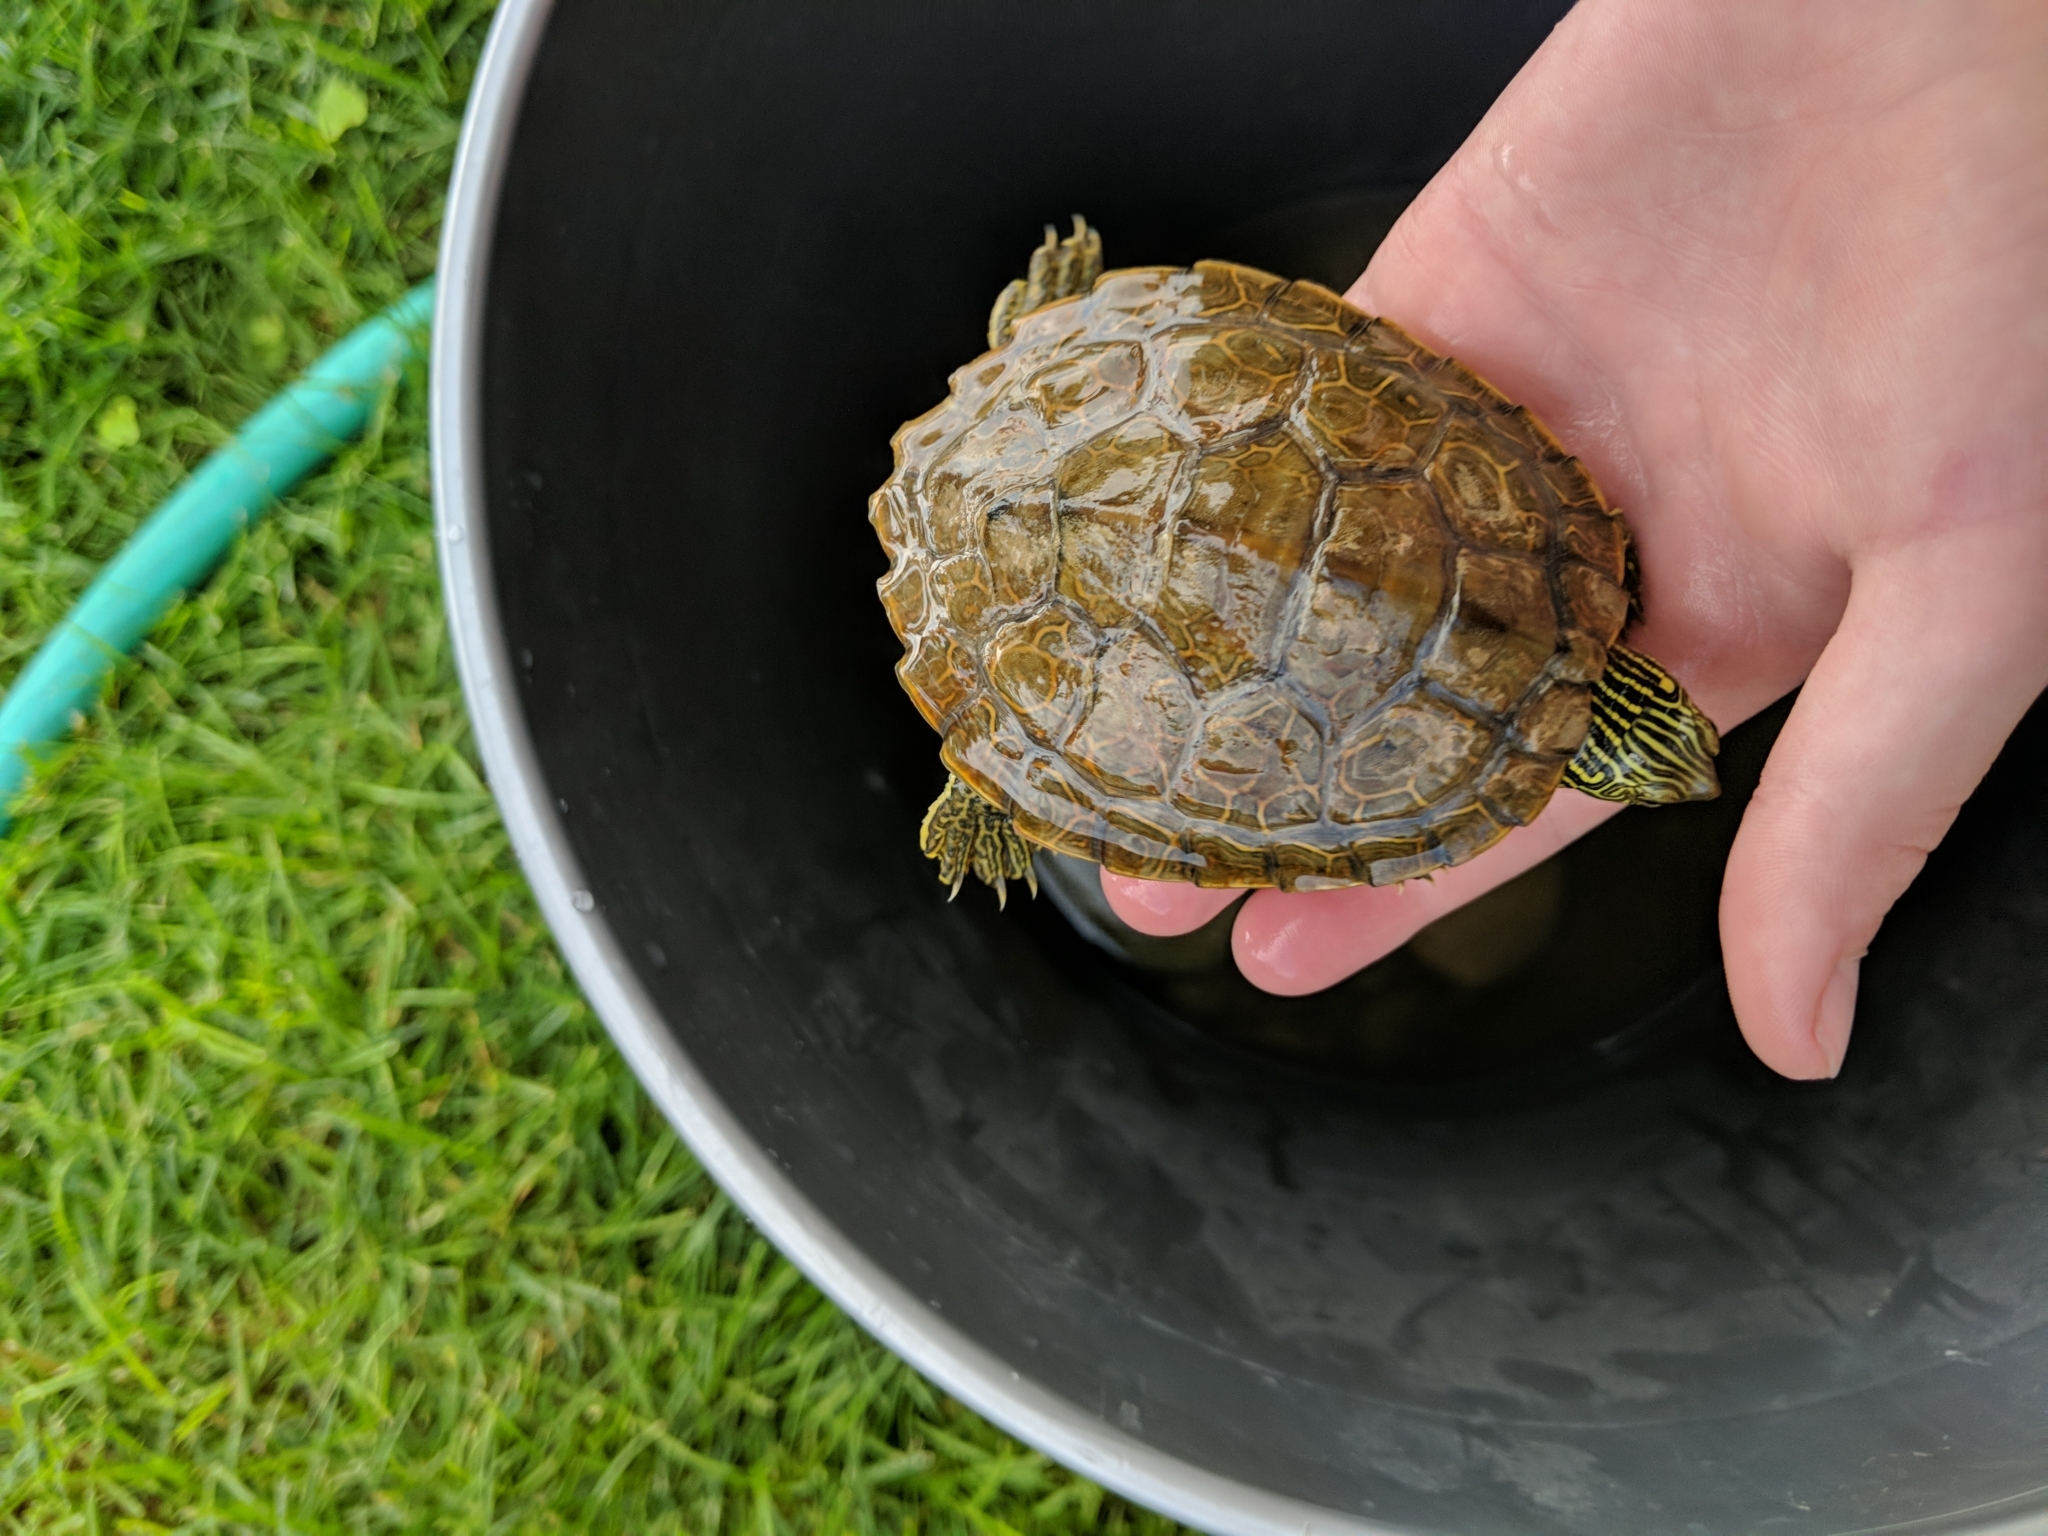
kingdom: Animalia
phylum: Chordata
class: Testudines
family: Emydidae
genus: Graptemys
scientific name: Graptemys geographica
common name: Common map turtle
